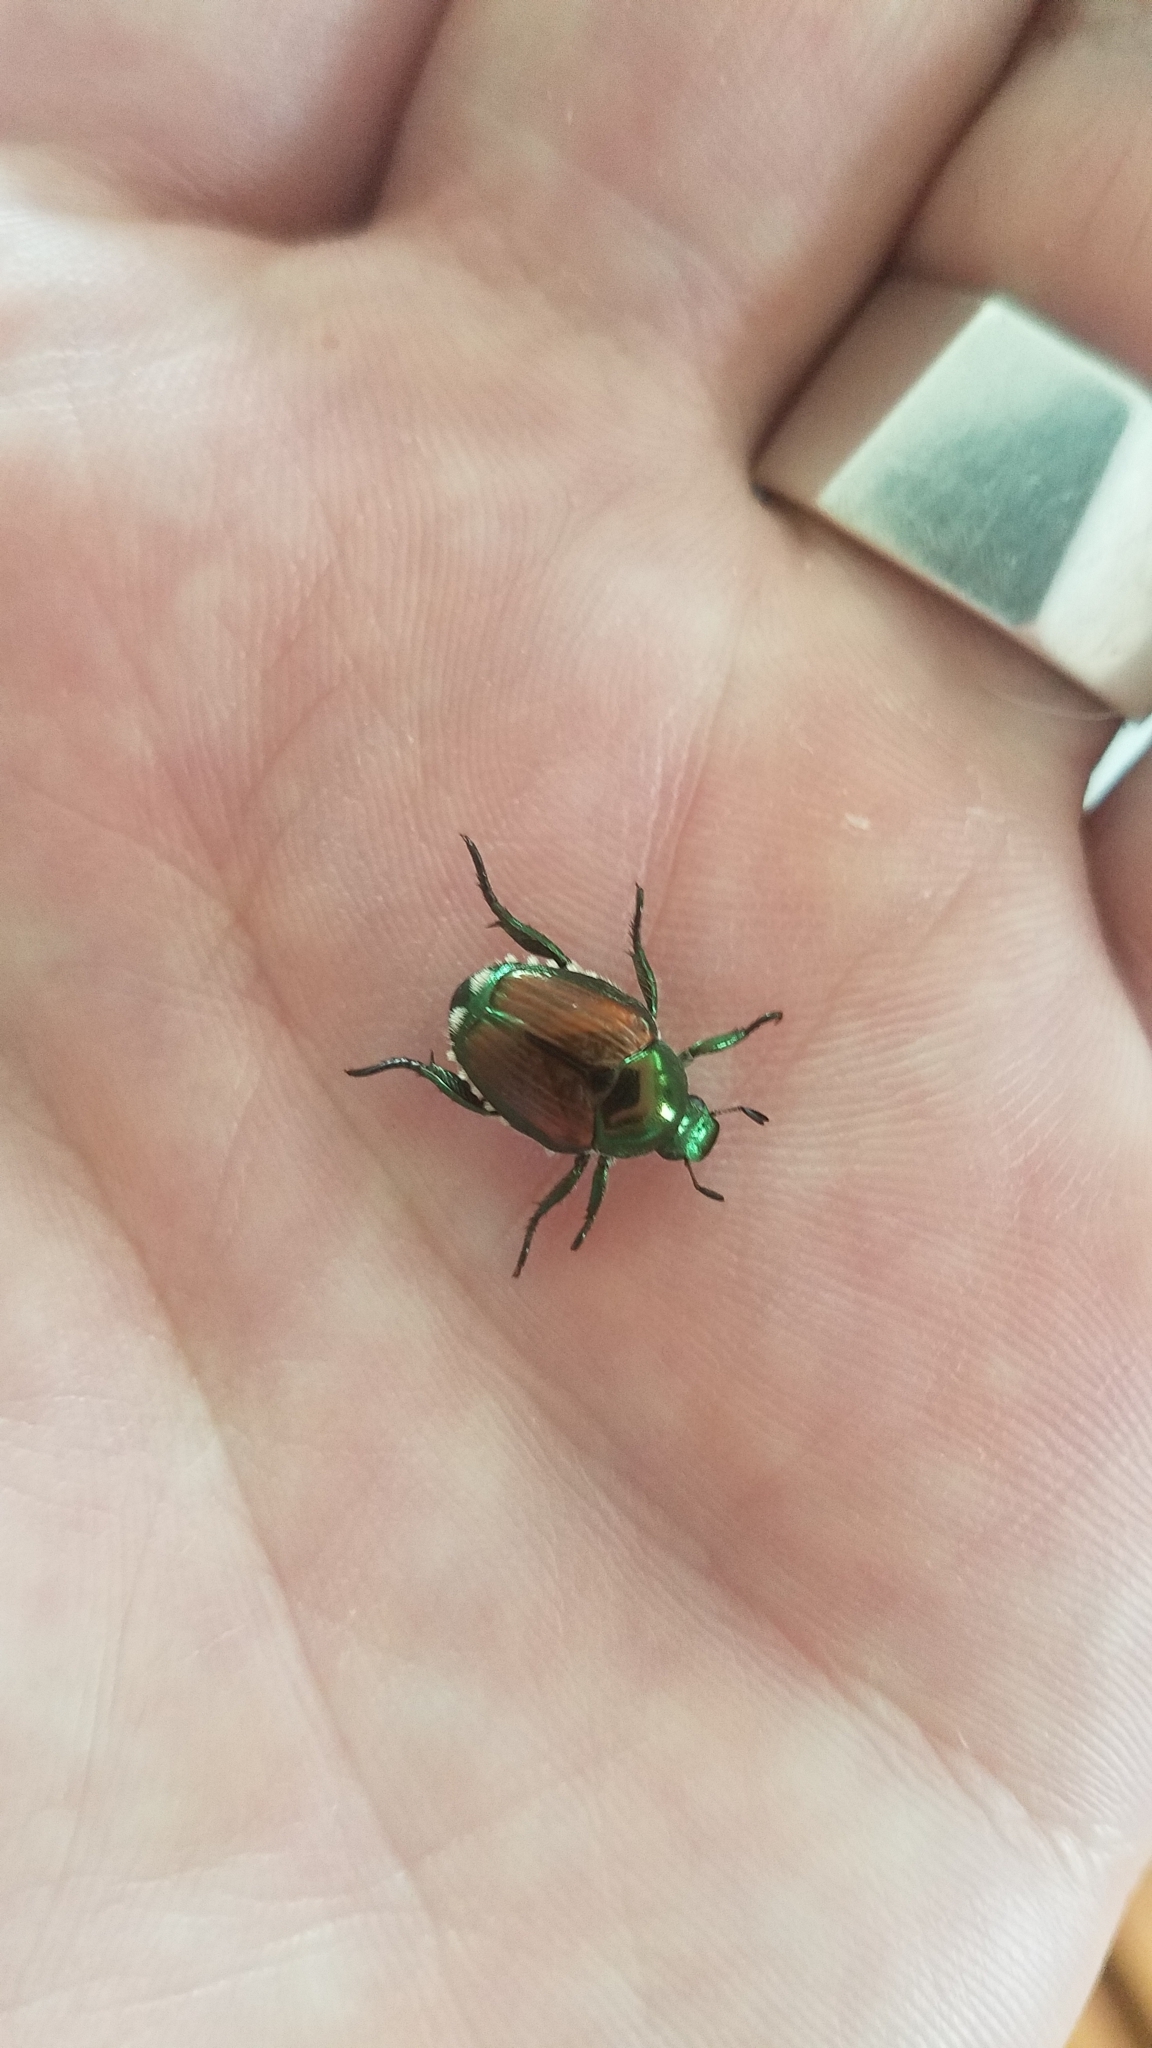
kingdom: Animalia
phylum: Arthropoda
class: Insecta
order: Coleoptera
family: Scarabaeidae
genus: Popillia
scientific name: Popillia japonica
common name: Japanese beetle
